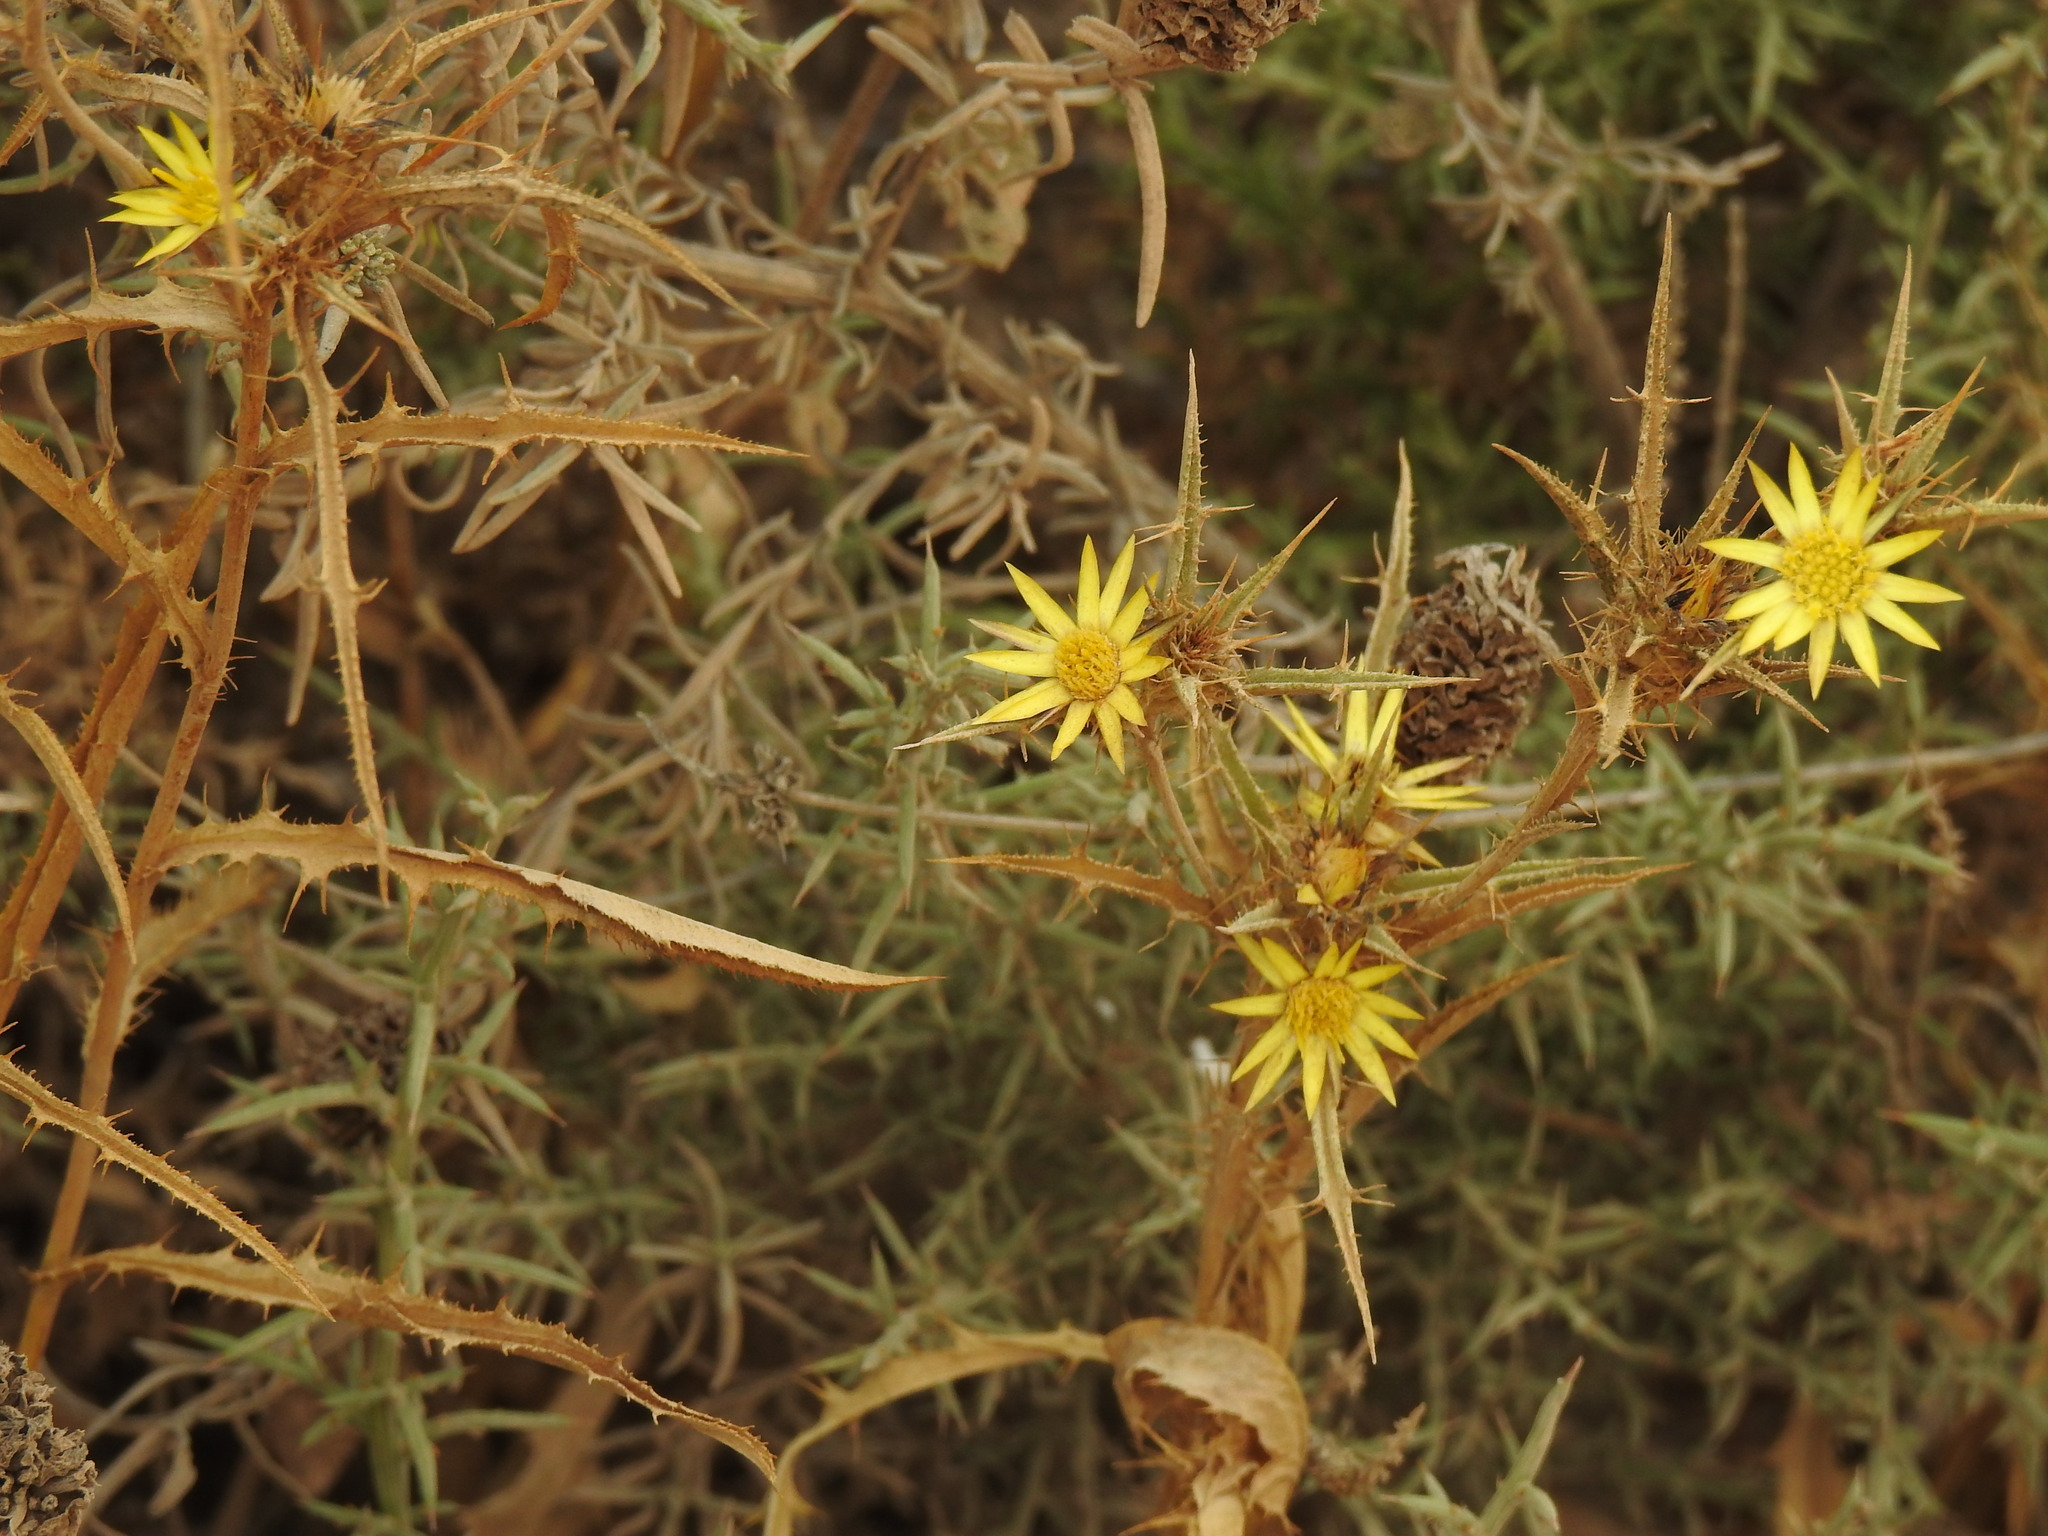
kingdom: Plantae
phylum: Tracheophyta
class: Magnoliopsida
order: Asterales
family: Asteraceae
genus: Carlina
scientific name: Carlina racemosa
